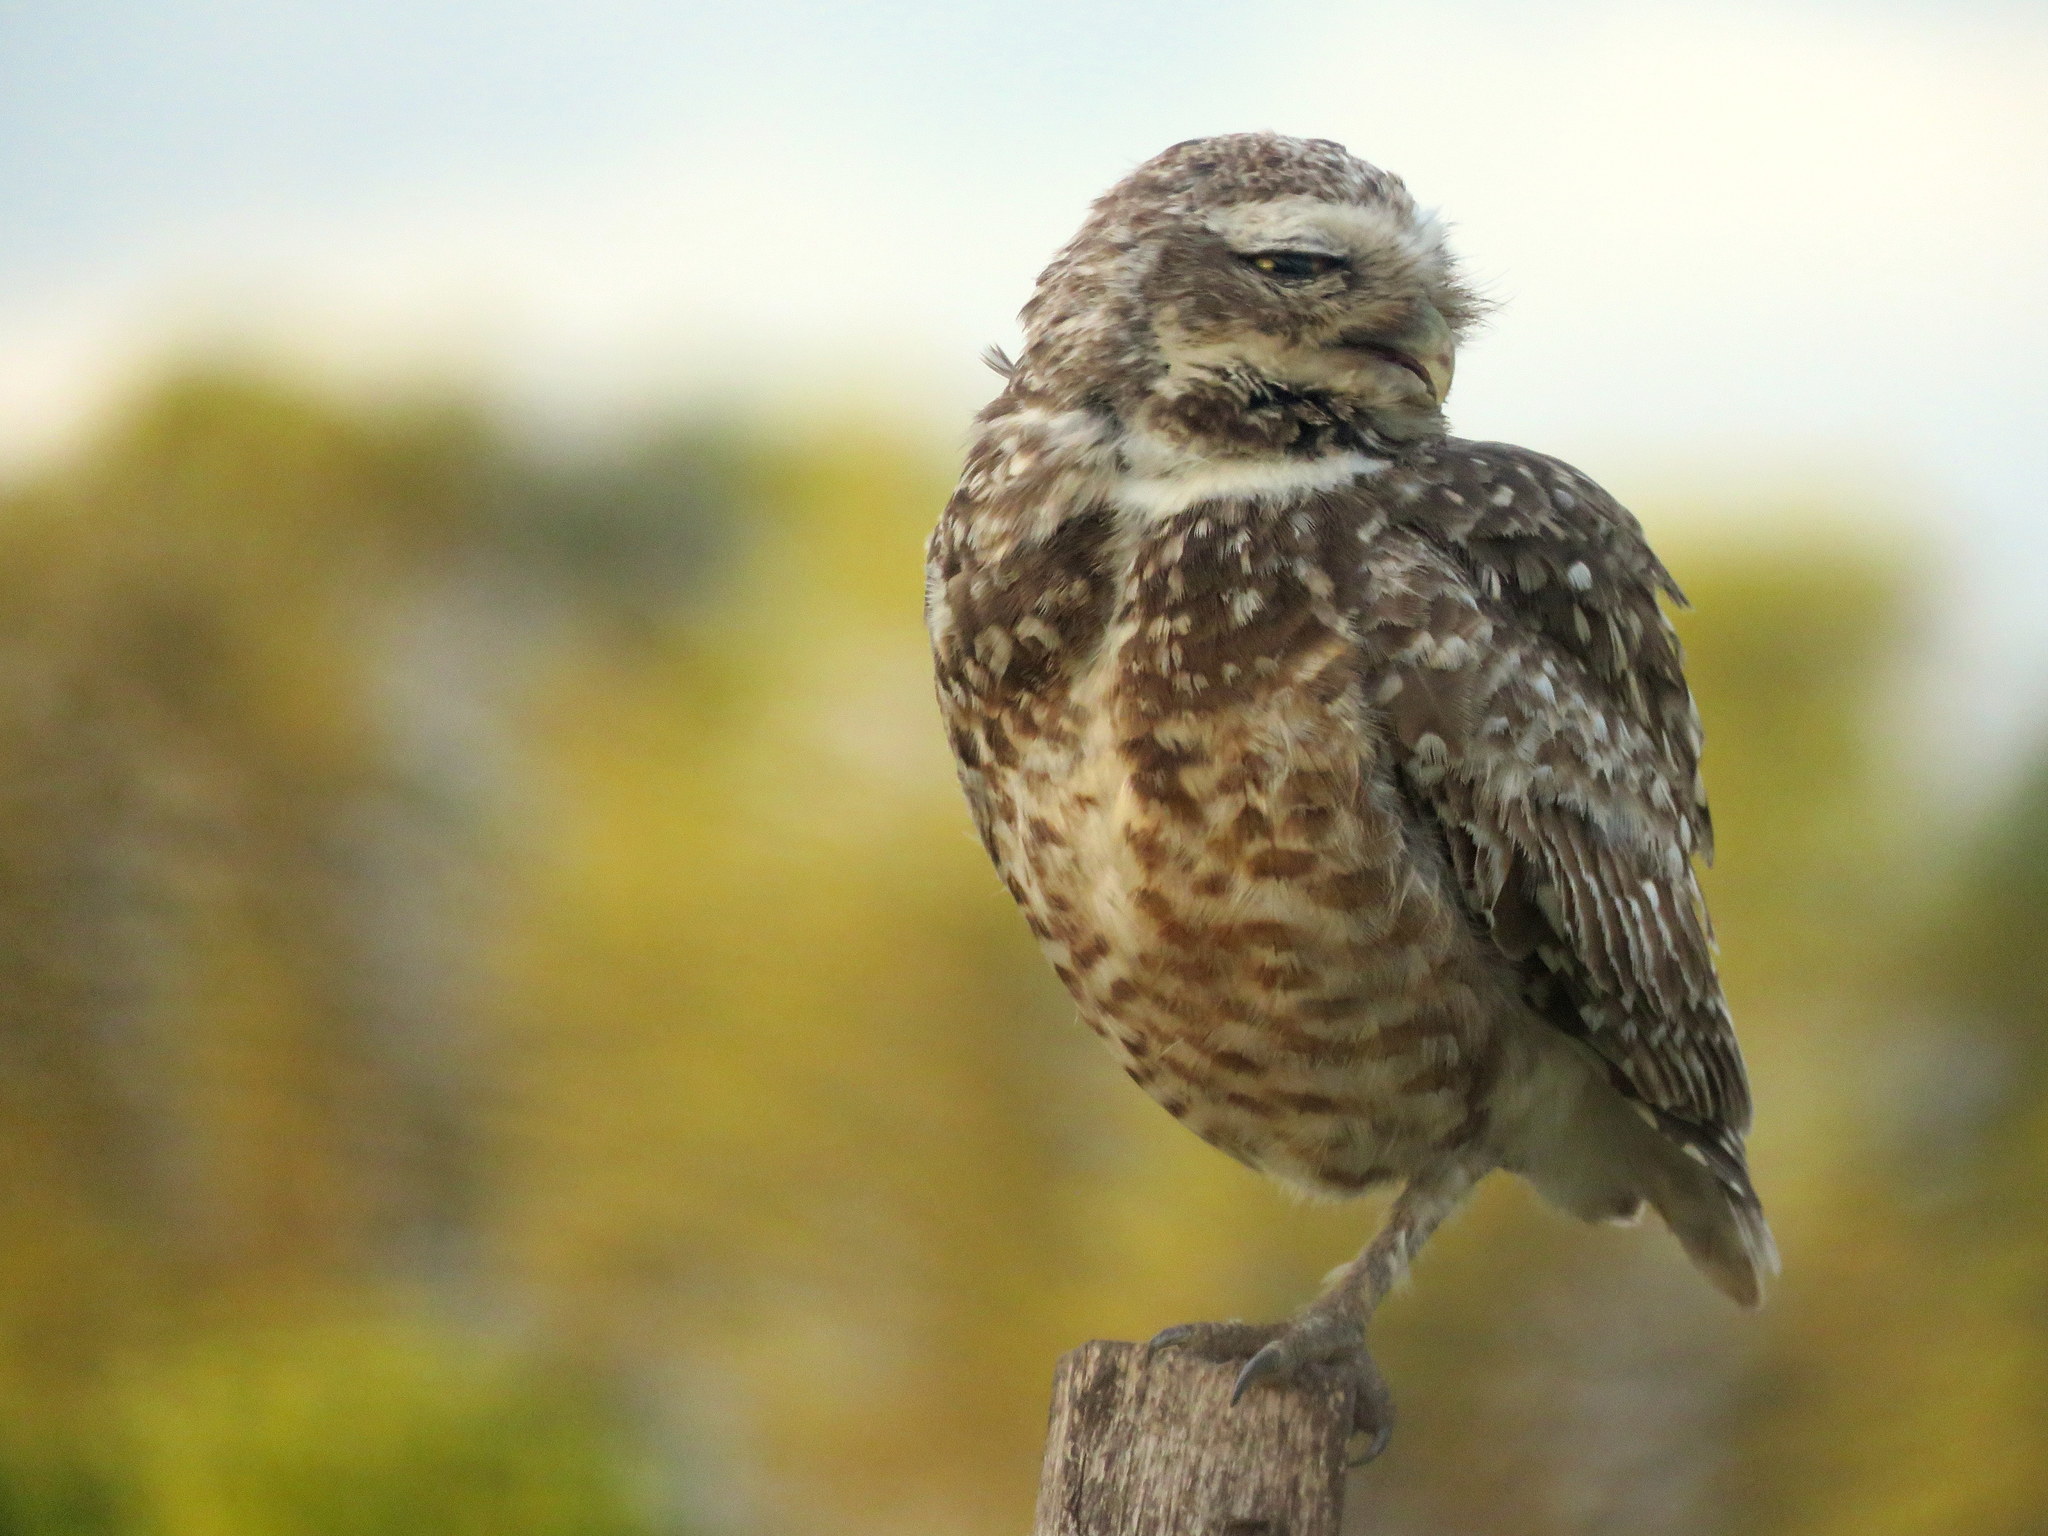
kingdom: Animalia
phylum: Chordata
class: Aves
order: Strigiformes
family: Strigidae
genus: Athene
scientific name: Athene cunicularia
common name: Burrowing owl
